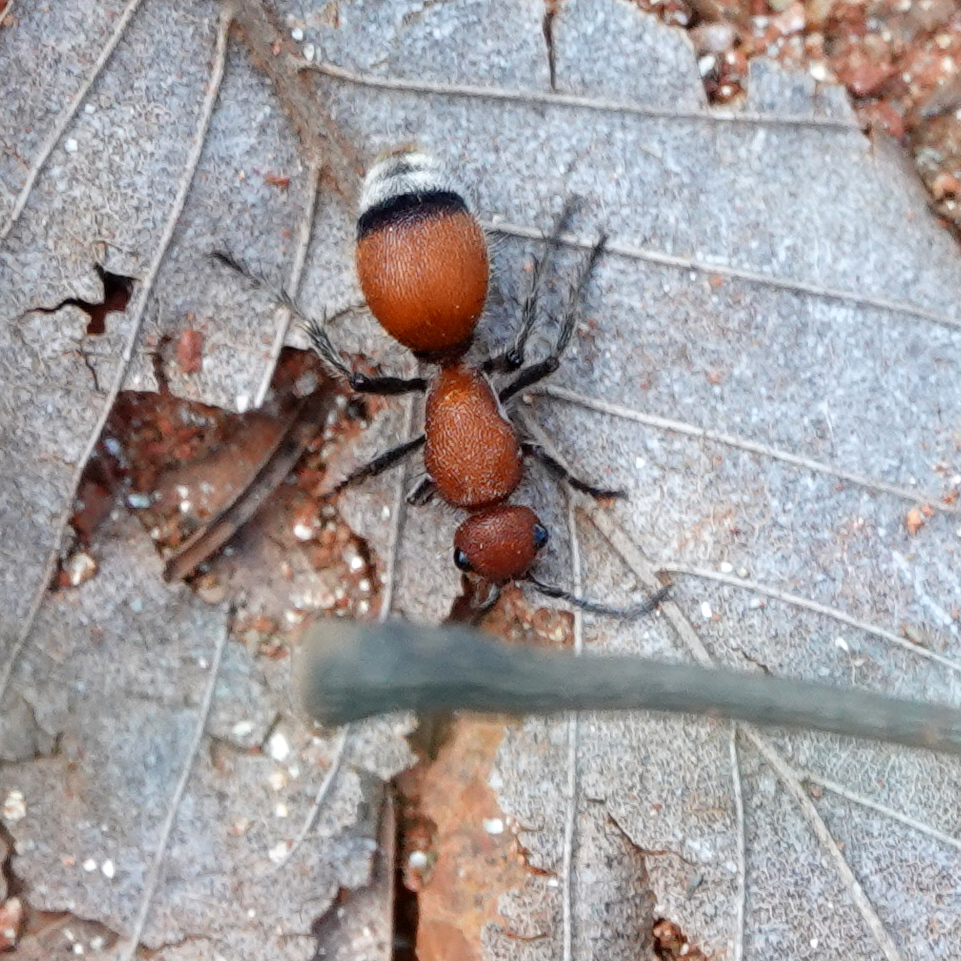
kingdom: Animalia
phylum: Arthropoda
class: Insecta
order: Hymenoptera
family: Mutillidae
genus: Dasymutilla
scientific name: Dasymutilla
